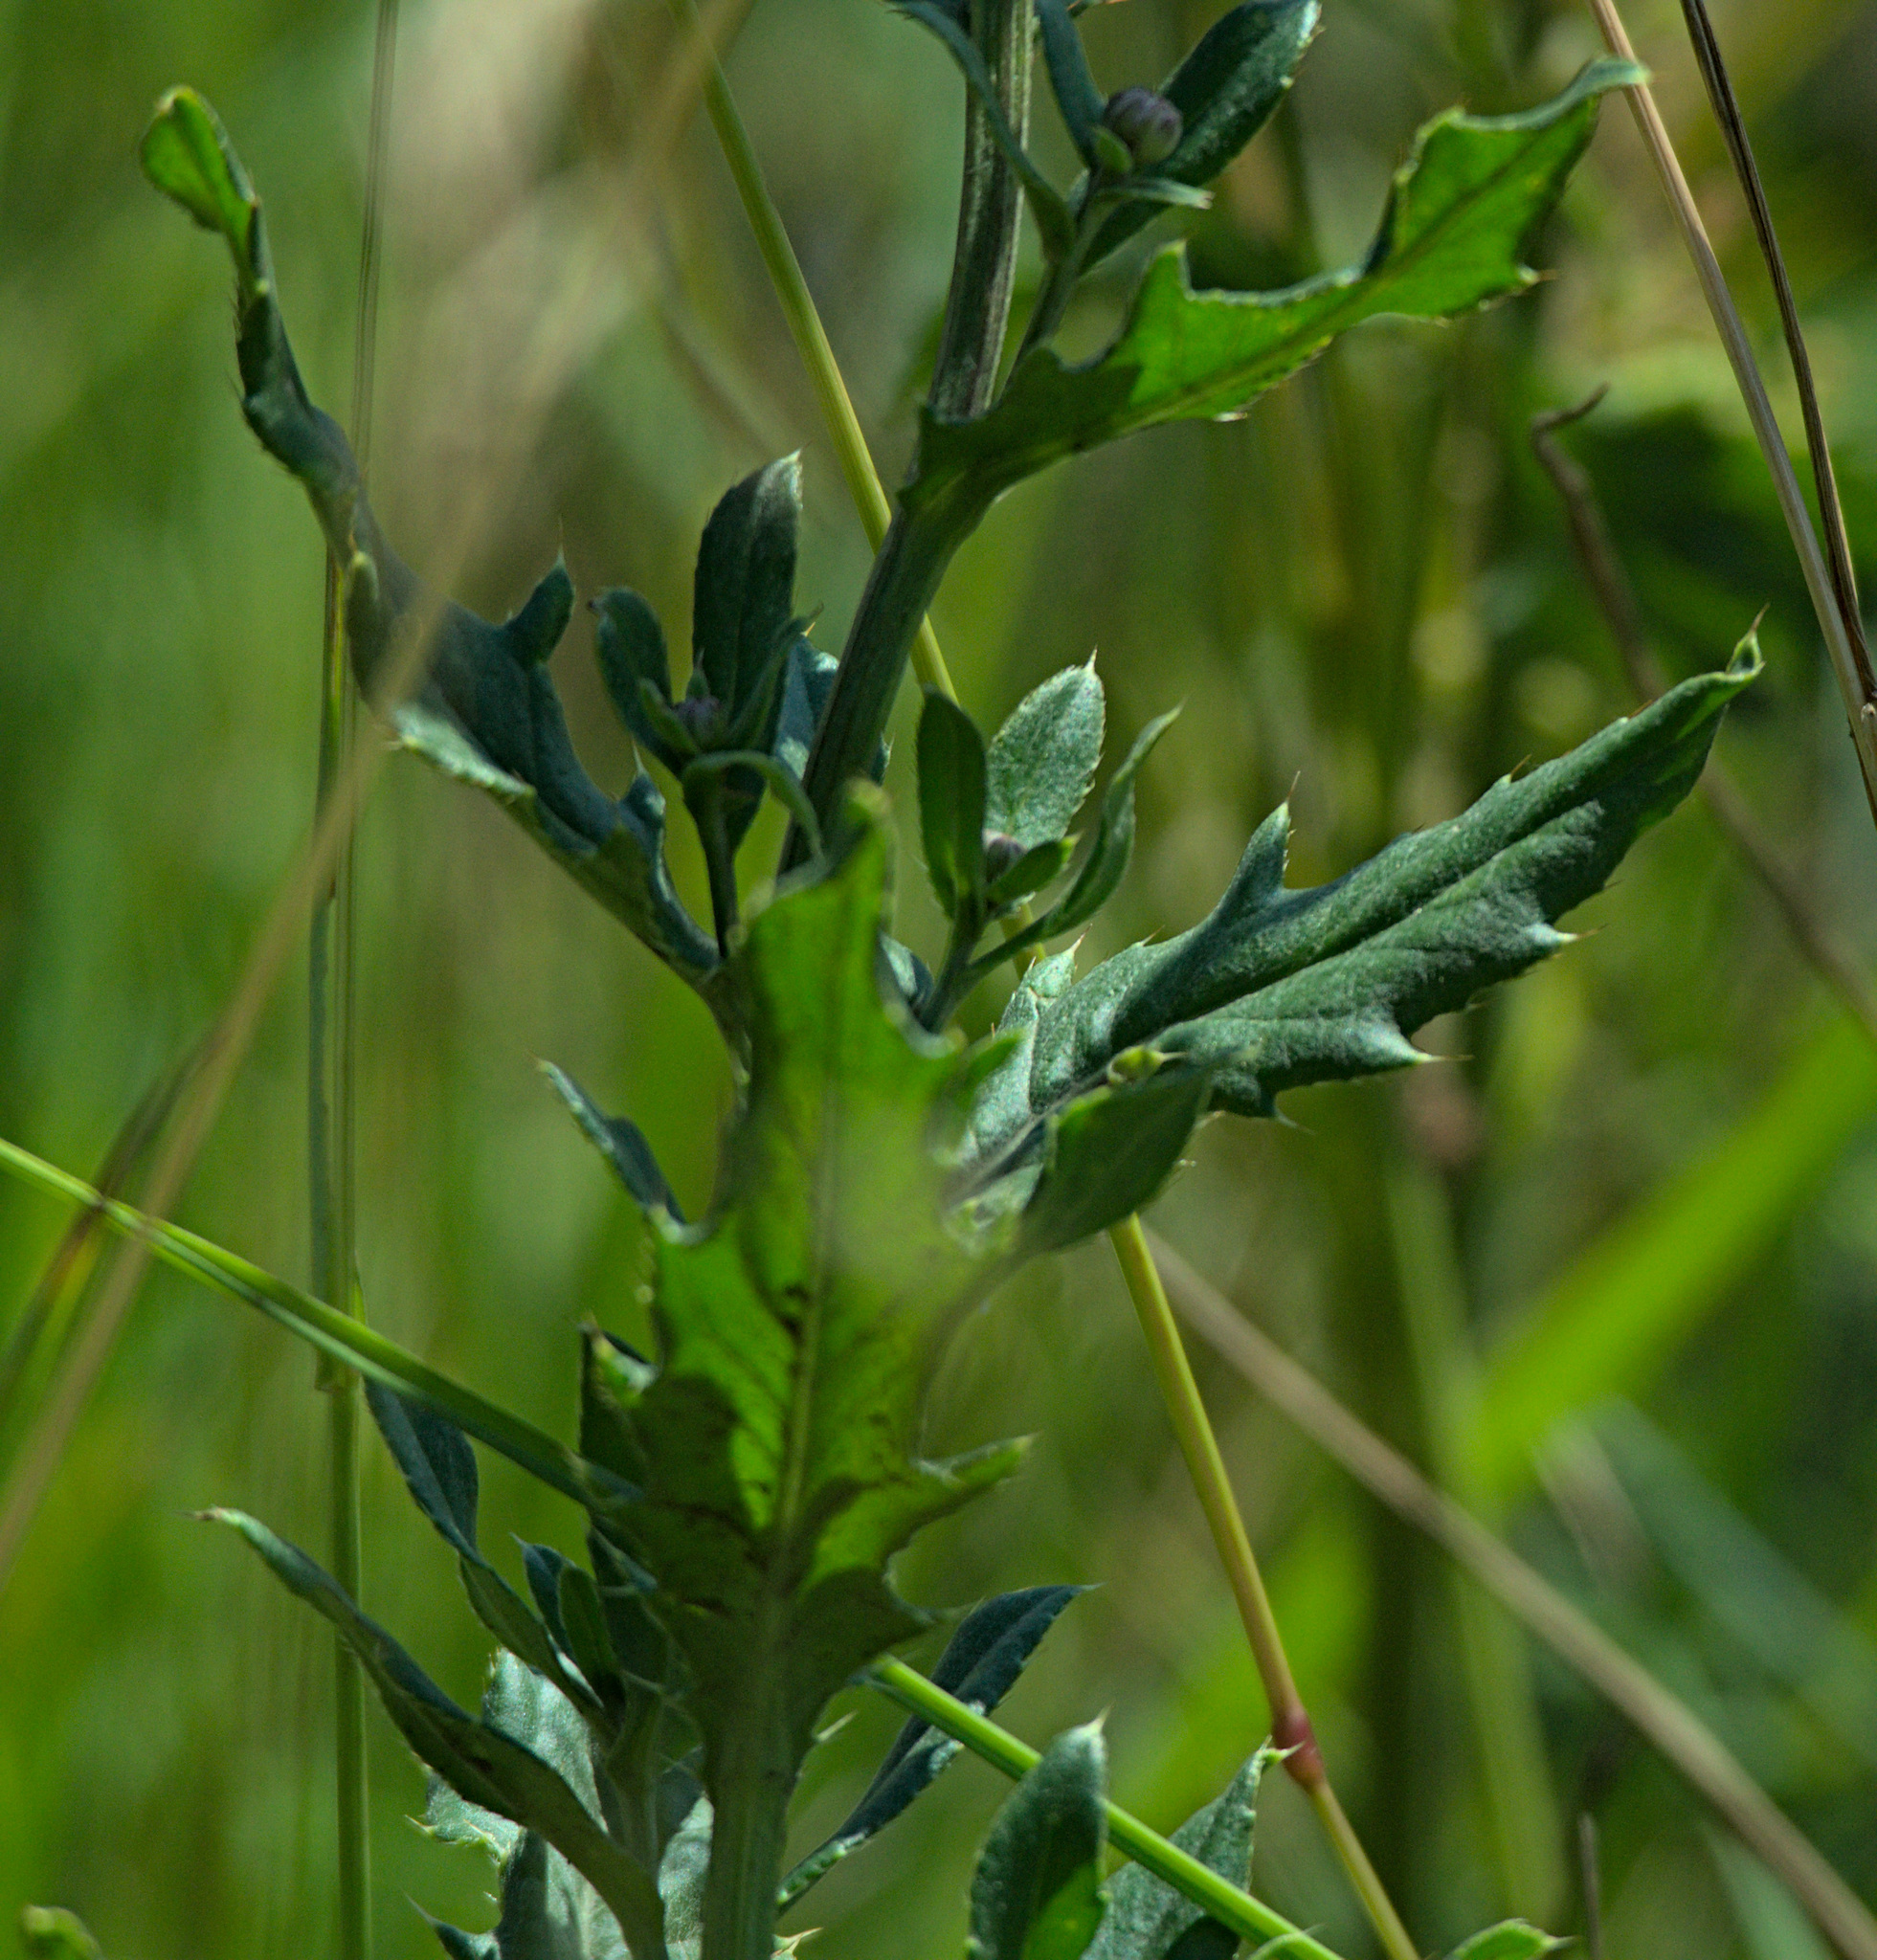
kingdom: Plantae
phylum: Tracheophyta
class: Magnoliopsida
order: Asterales
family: Asteraceae
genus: Cirsium
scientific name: Cirsium arvense
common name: Creeping thistle
